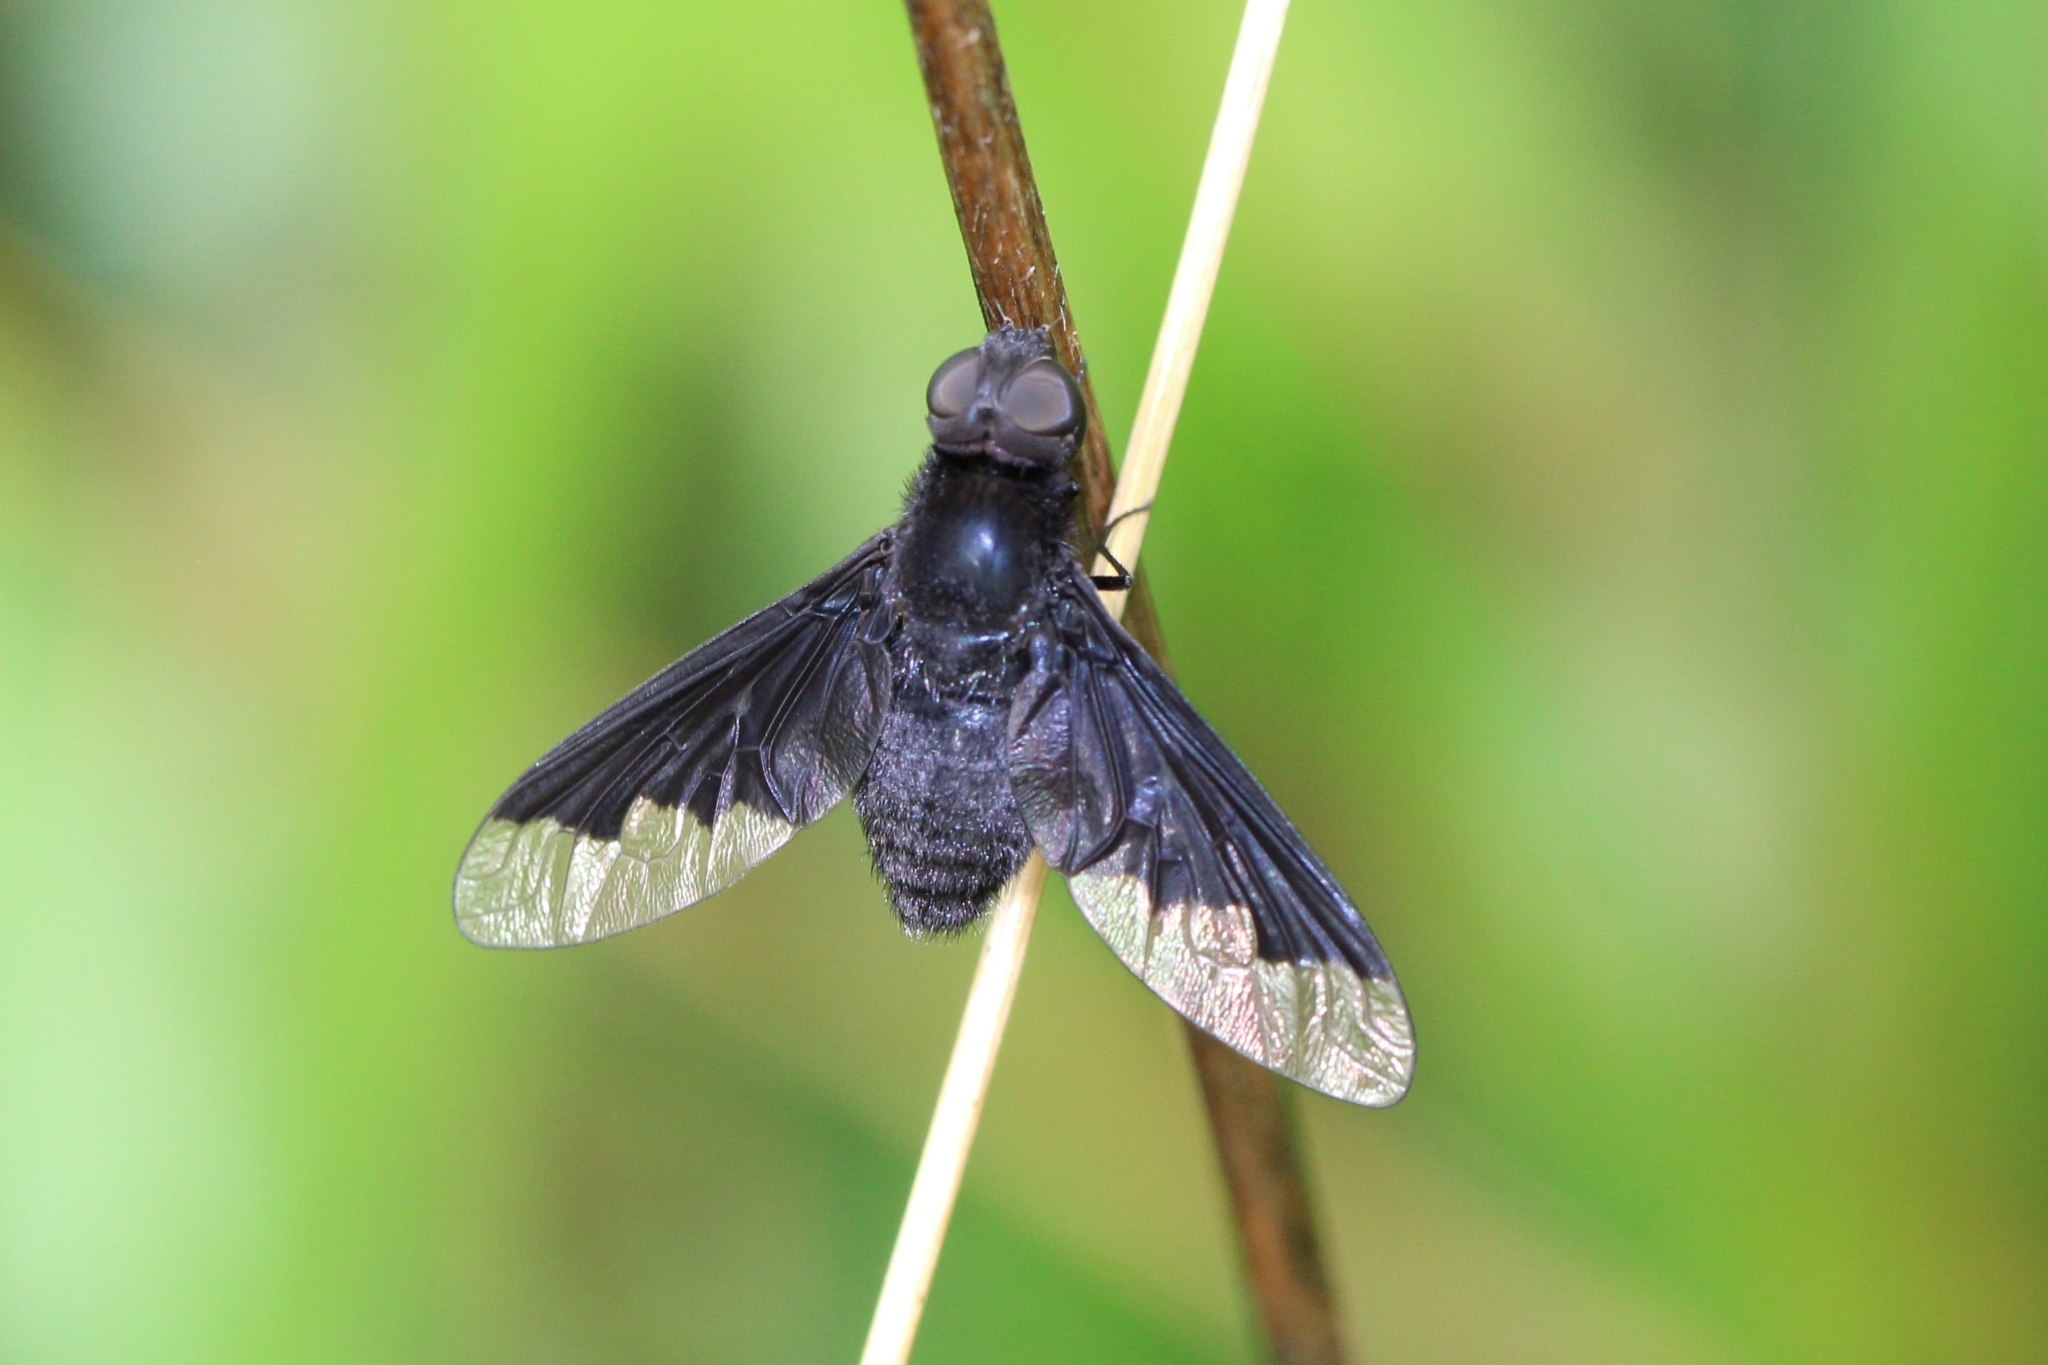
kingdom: Animalia
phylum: Arthropoda
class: Insecta
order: Diptera
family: Bombyliidae
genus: Anthrax
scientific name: Anthrax analis
